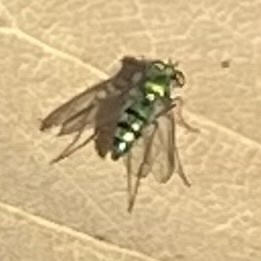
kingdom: Animalia
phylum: Arthropoda
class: Insecta
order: Diptera
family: Dolichopodidae
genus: Condylostylus
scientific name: Condylostylus longicornis
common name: Long-legged fly
